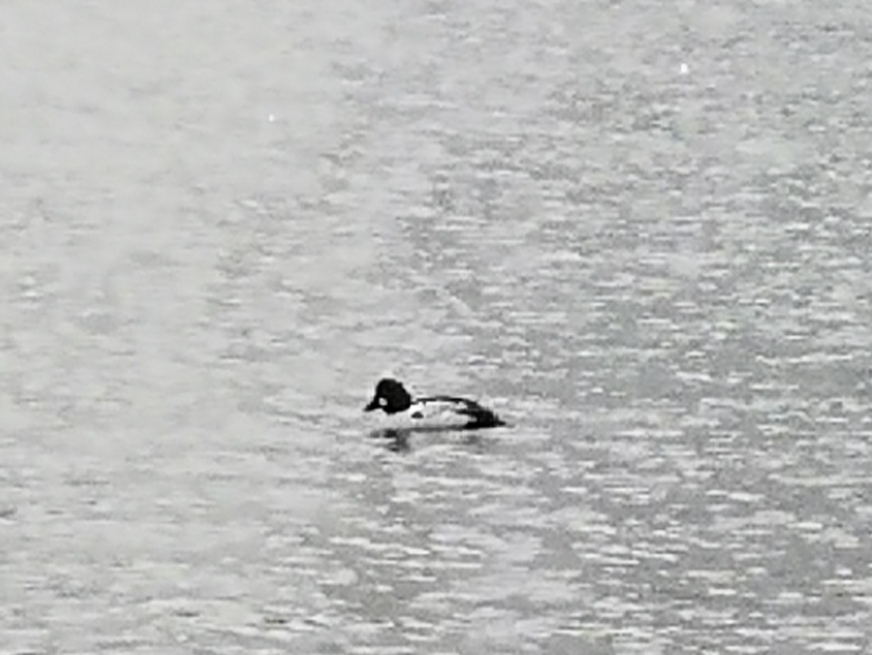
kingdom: Animalia
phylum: Chordata
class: Aves
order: Anseriformes
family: Anatidae
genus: Bucephala
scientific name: Bucephala clangula
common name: Common goldeneye
